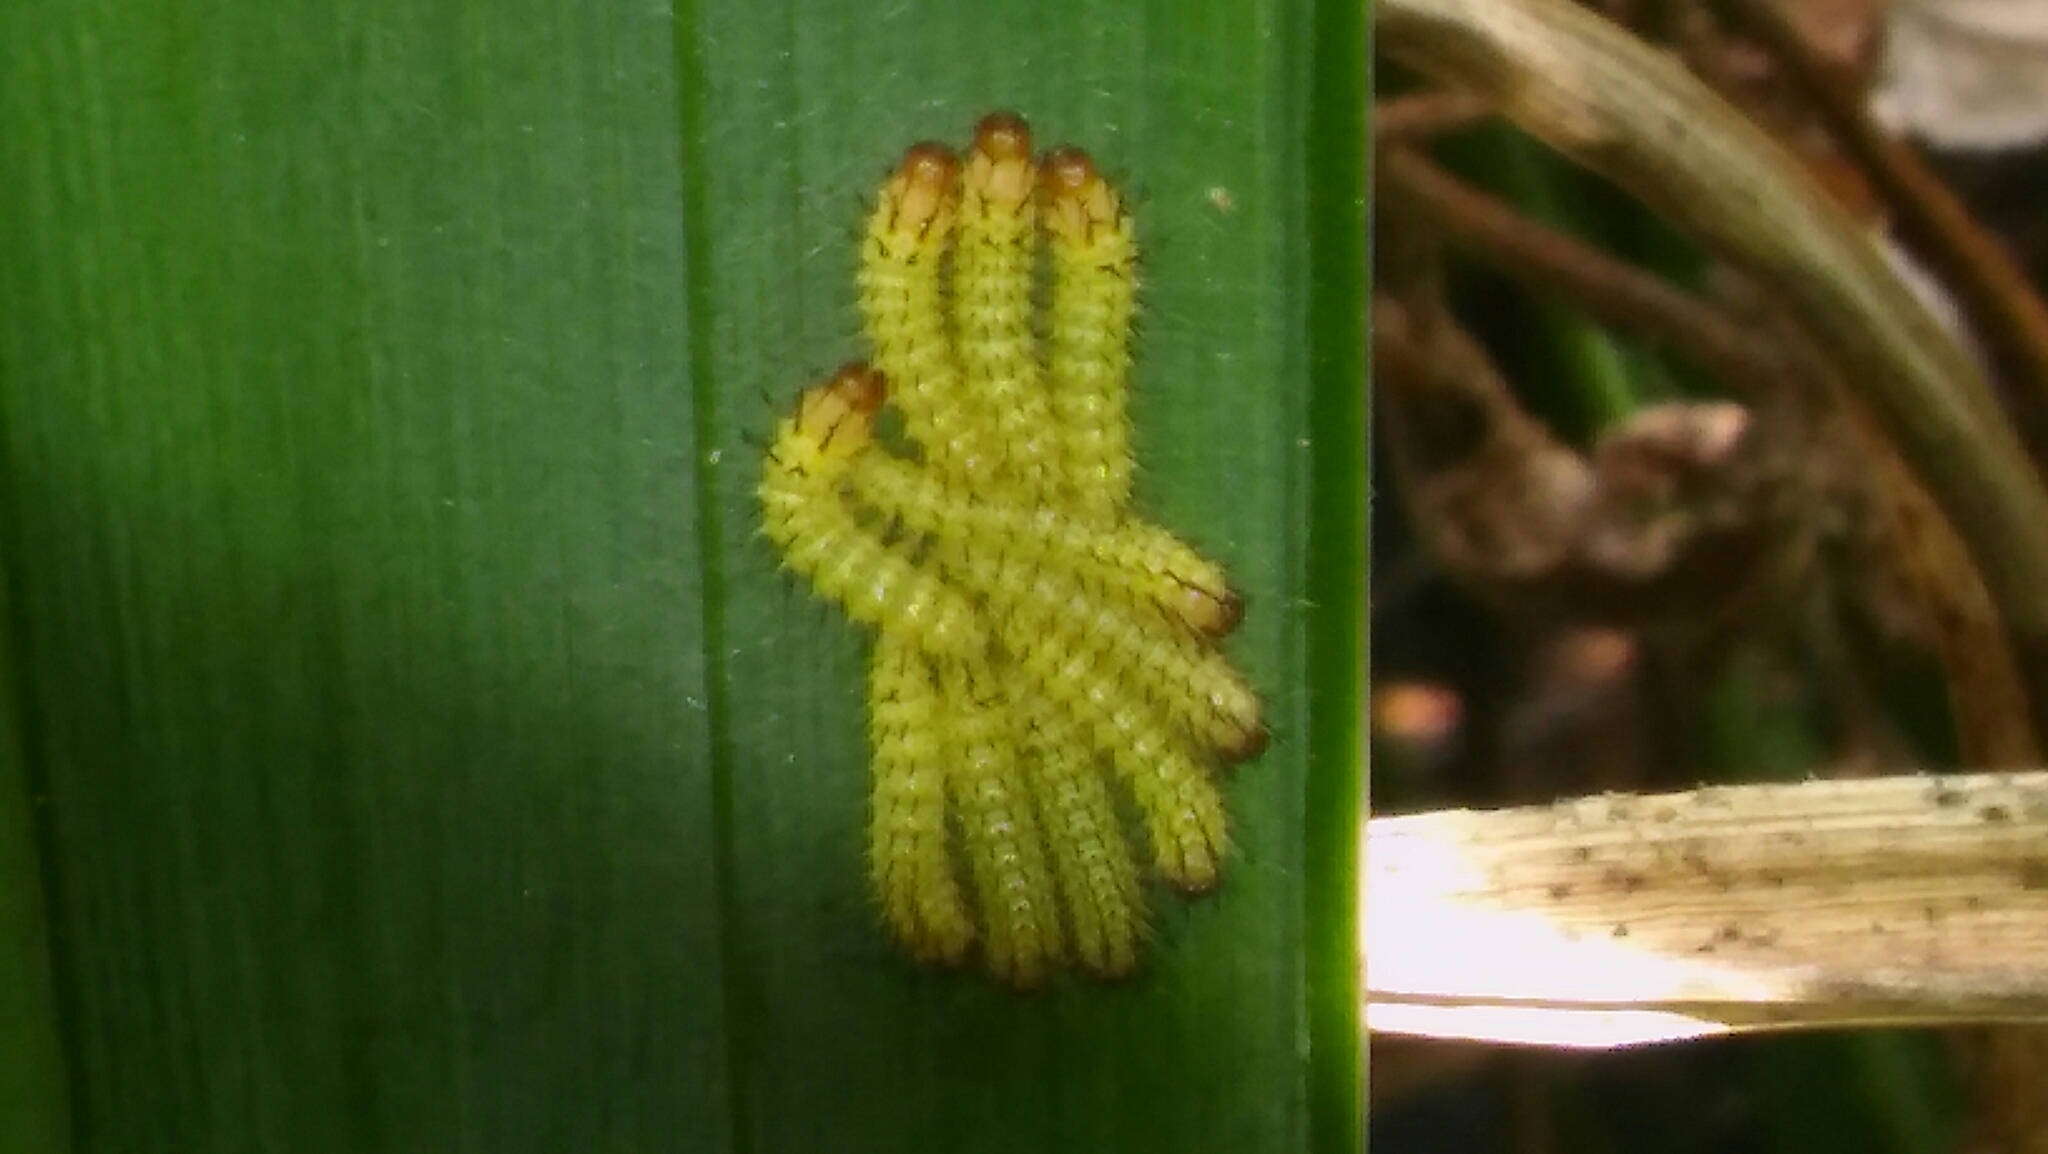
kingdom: Animalia
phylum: Arthropoda
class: Insecta
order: Lepidoptera
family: Saturniidae
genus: Pseudautomeris
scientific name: Pseudautomeris grammivora
